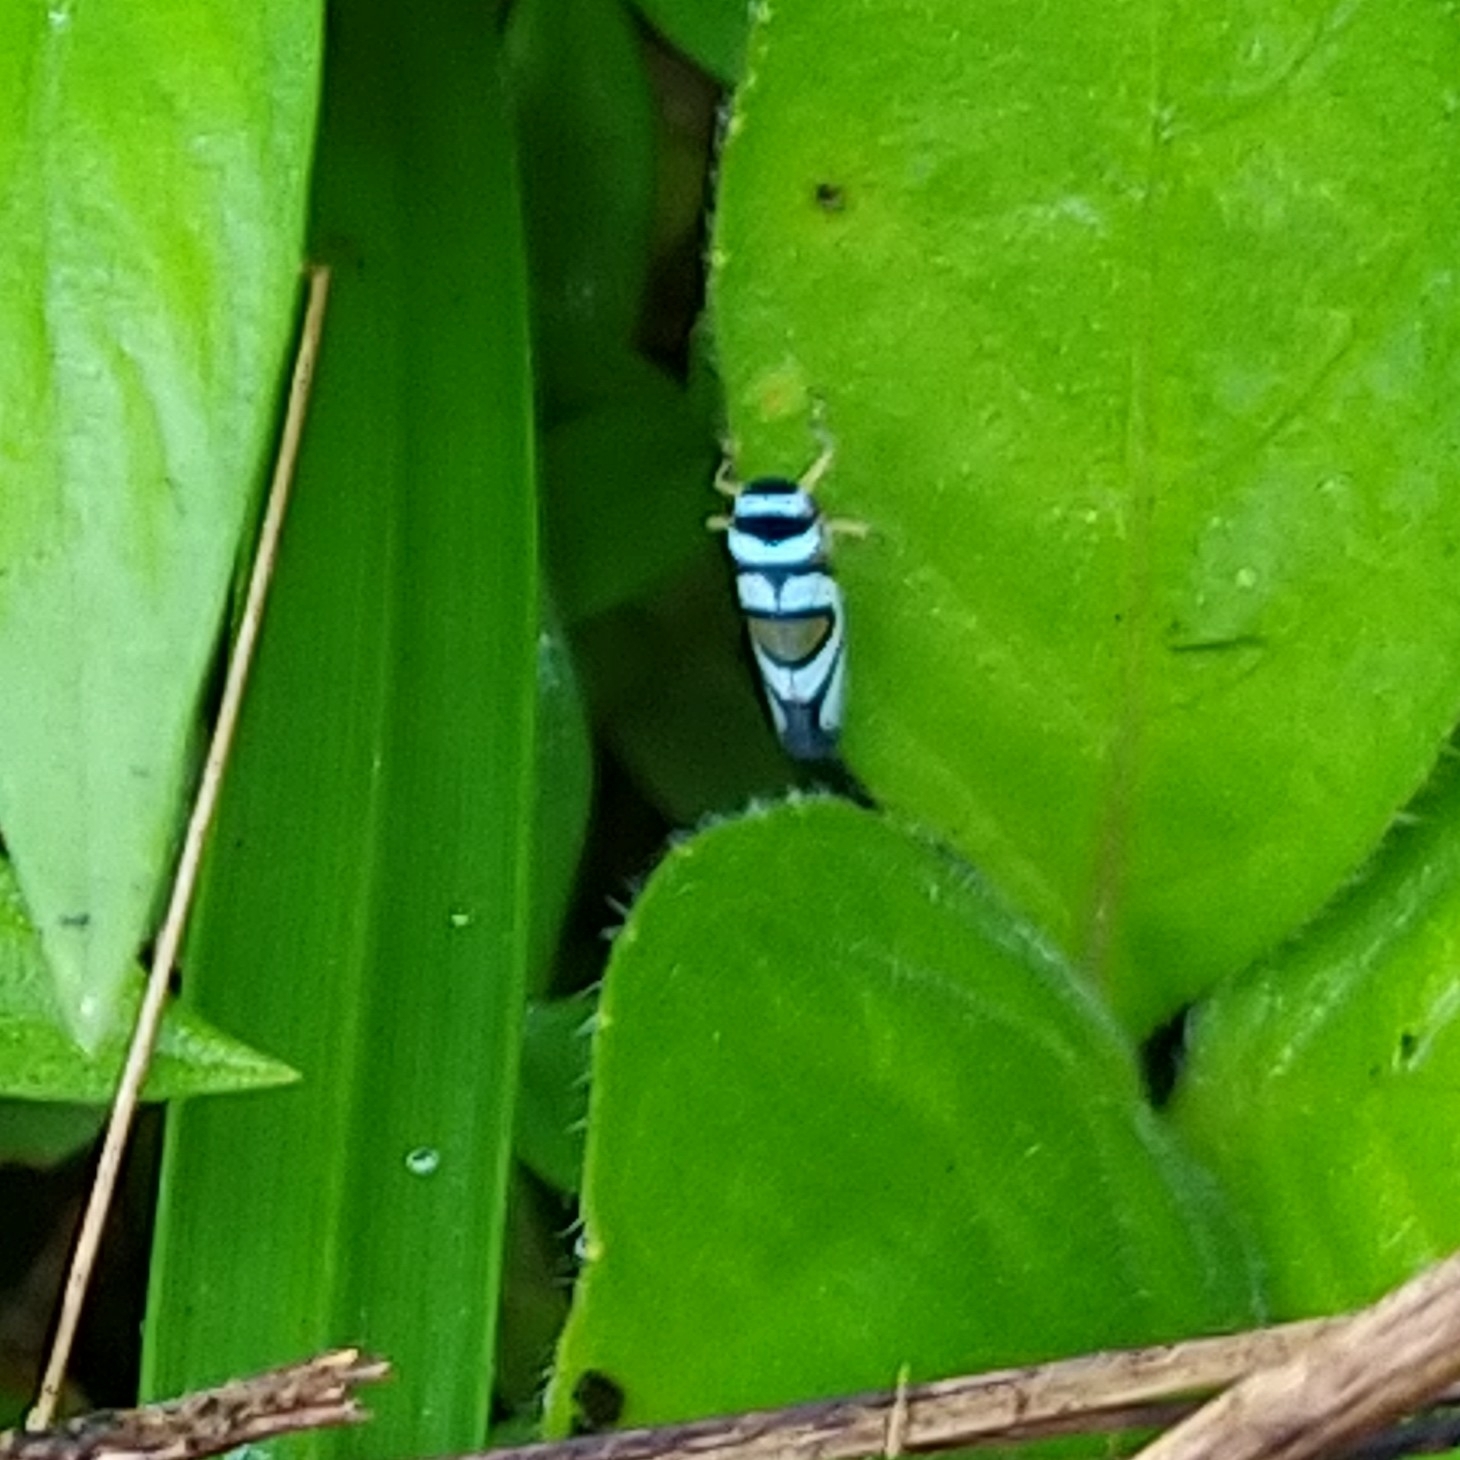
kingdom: Animalia
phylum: Arthropoda
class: Insecta
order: Hemiptera
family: Cicadellidae
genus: Macugonalia
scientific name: Macugonalia moesta
